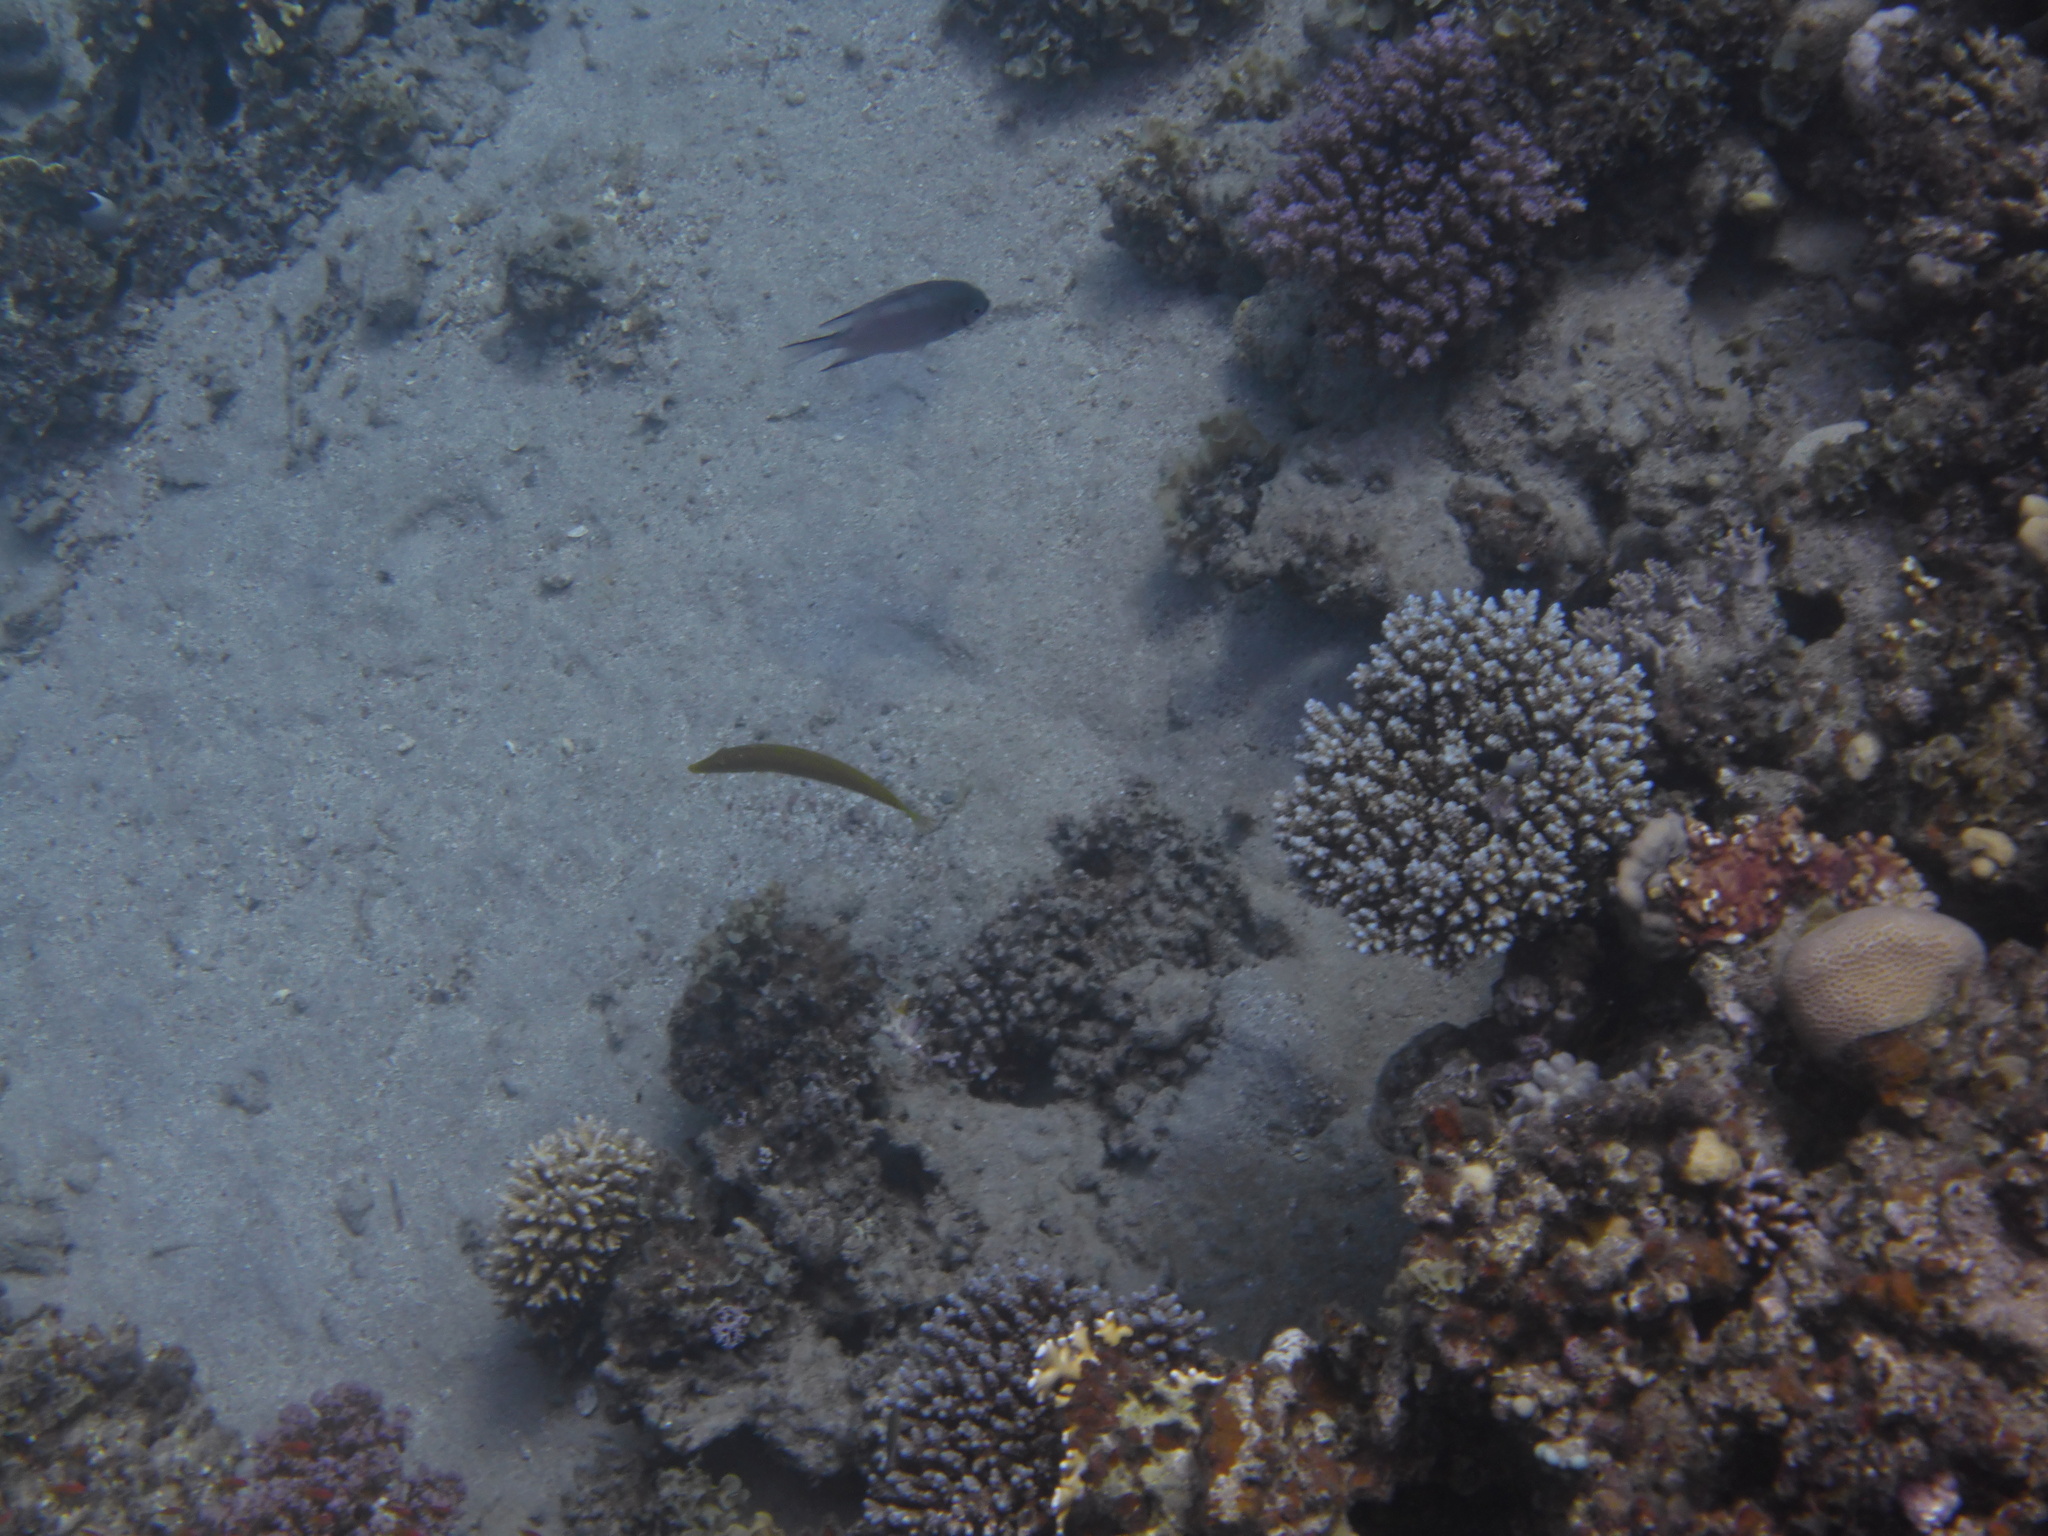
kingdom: Animalia
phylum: Chordata
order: Perciformes
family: Labridae
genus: Cheilio
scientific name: Cheilio inermis
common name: Cigar wrasse
